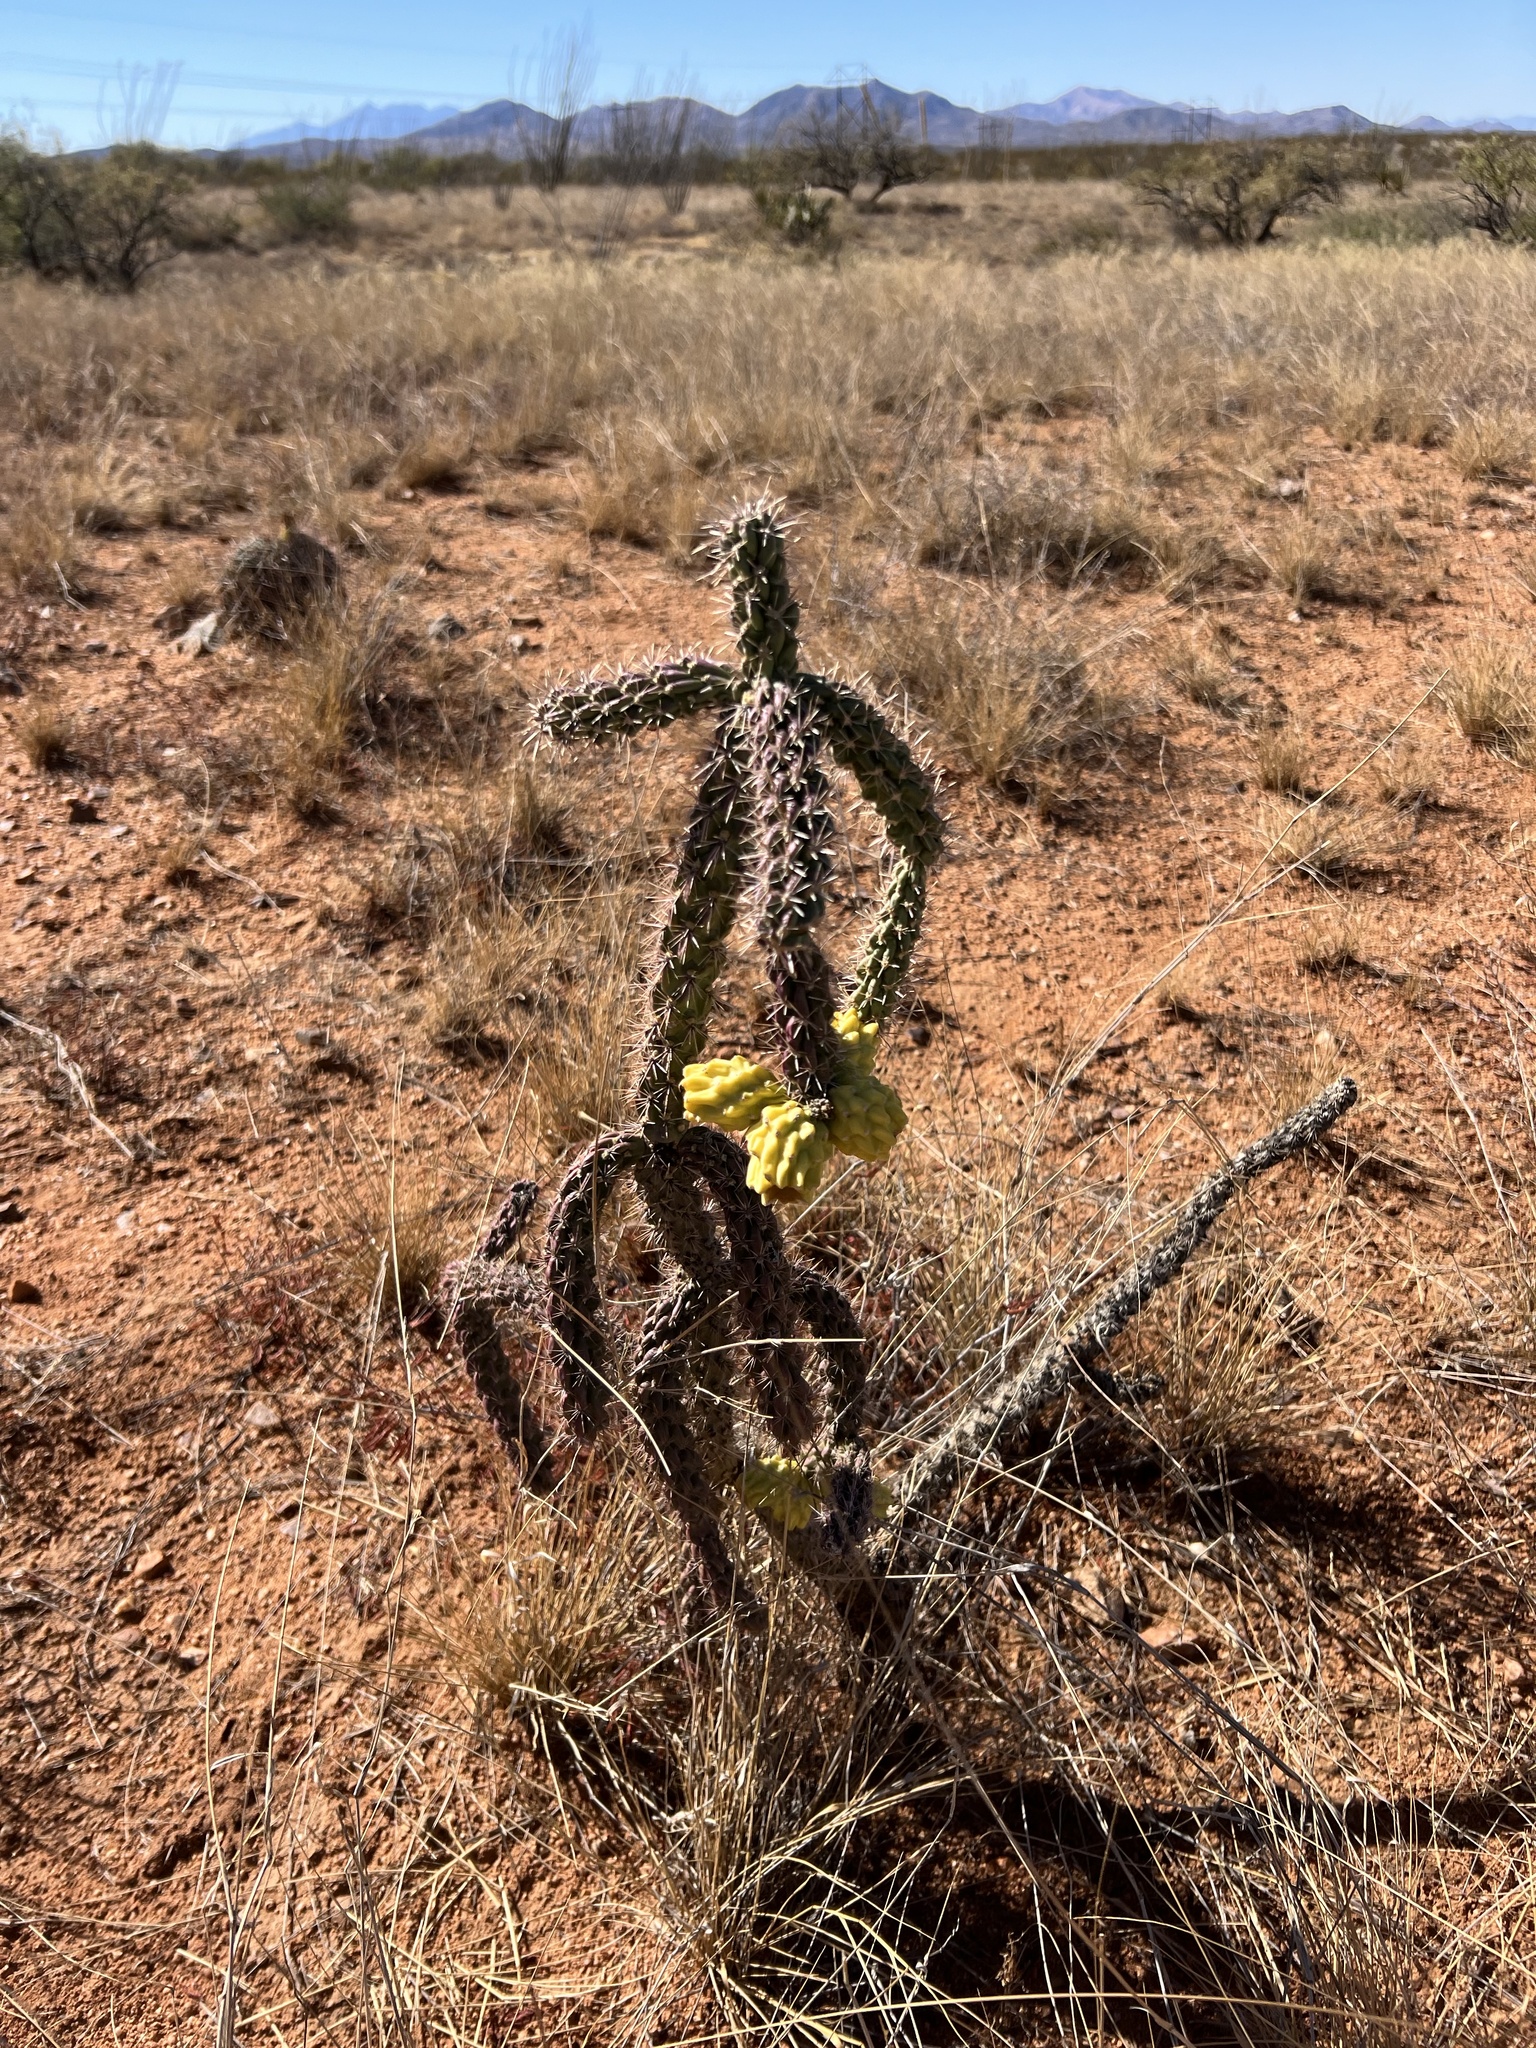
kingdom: Plantae
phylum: Tracheophyta
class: Magnoliopsida
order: Caryophyllales
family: Cactaceae
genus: Cylindropuntia
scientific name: Cylindropuntia imbricata
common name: Candelabrum cactus
